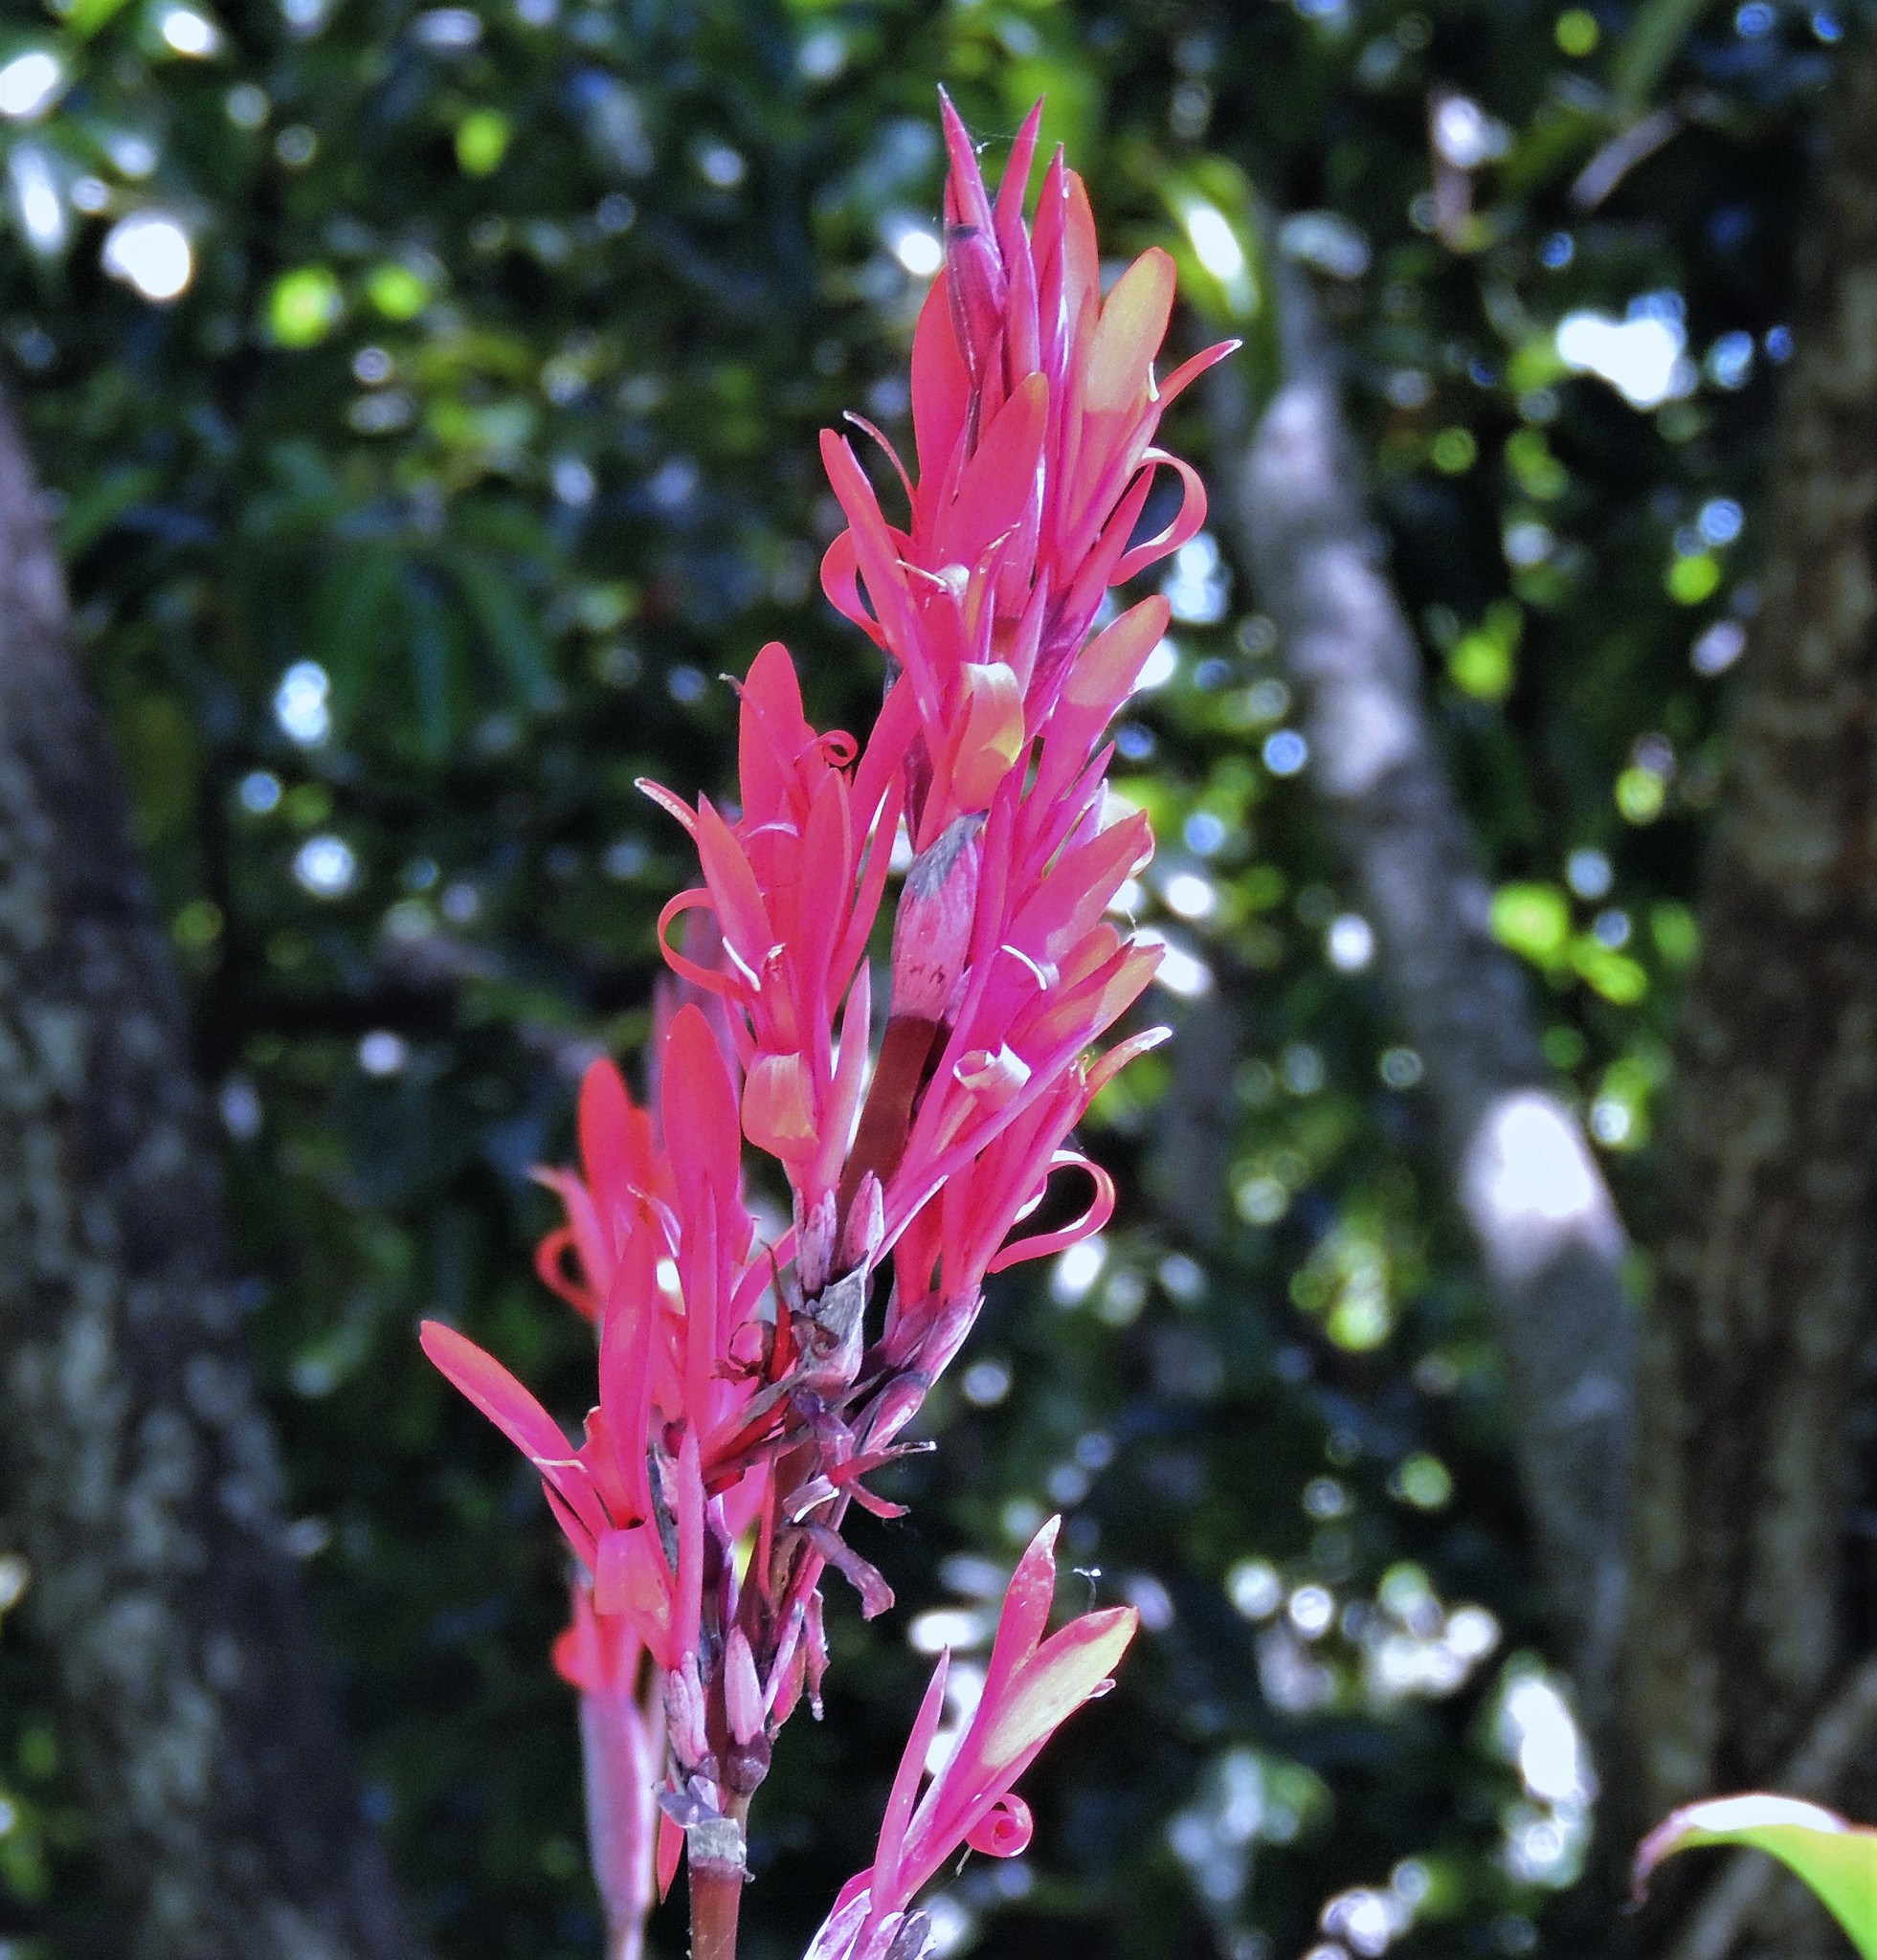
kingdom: Plantae
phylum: Tracheophyta
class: Liliopsida
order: Zingiberales
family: Cannaceae
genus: Canna
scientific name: Canna indica
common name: Indian shot
